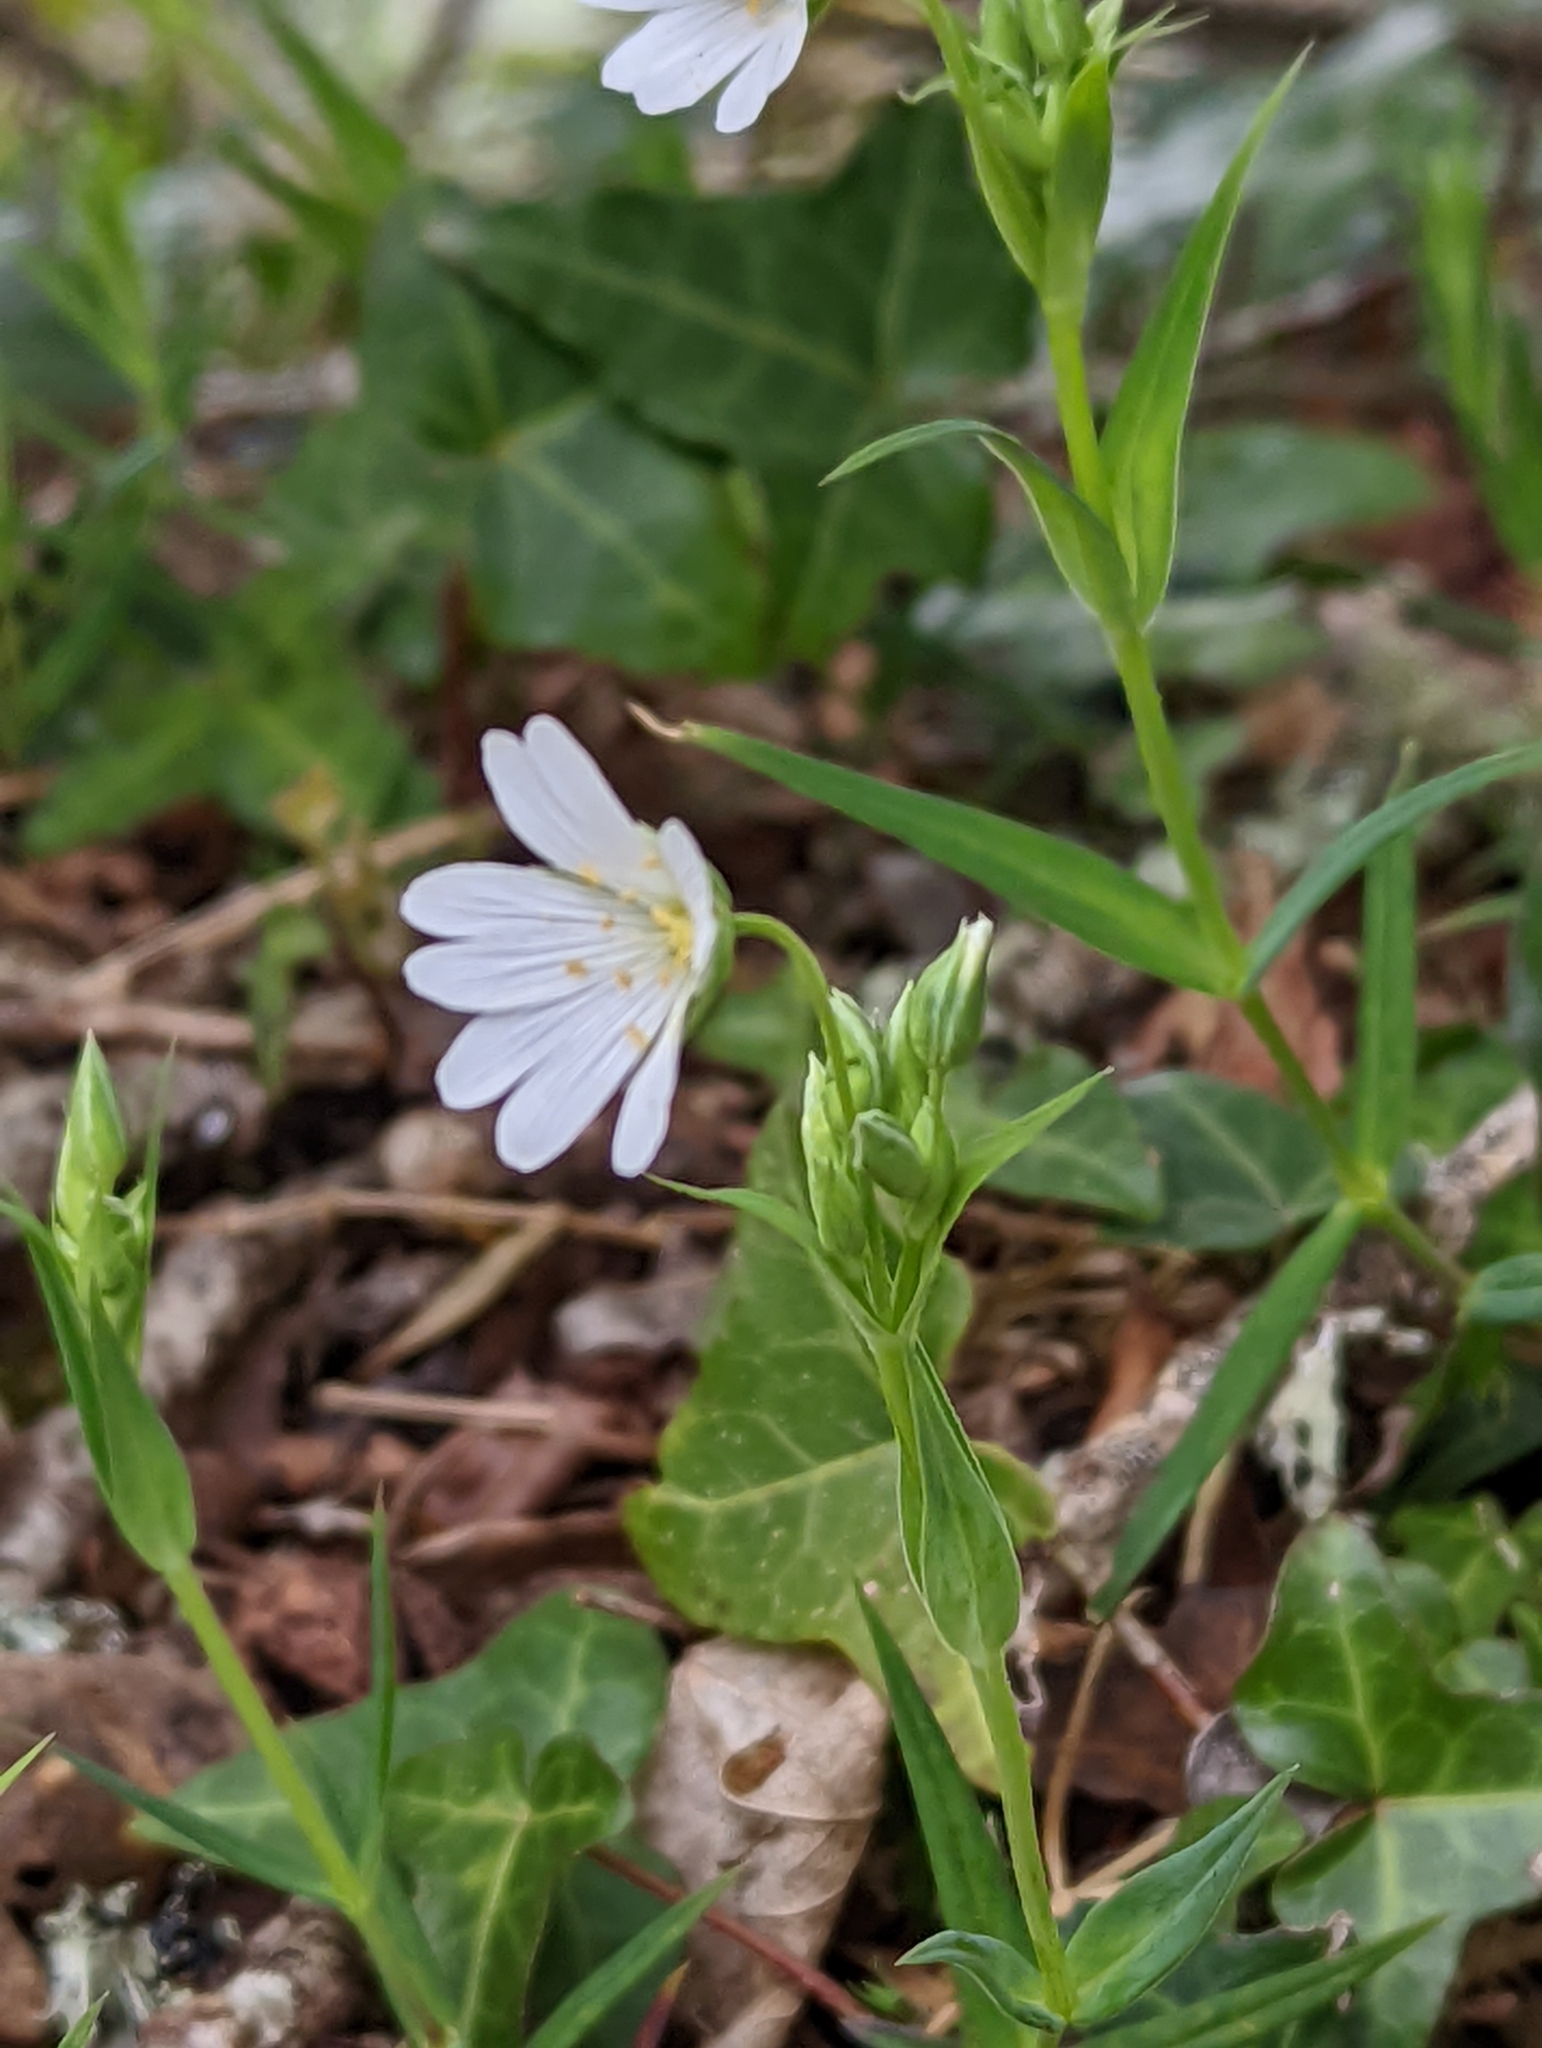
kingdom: Plantae
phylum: Tracheophyta
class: Magnoliopsida
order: Caryophyllales
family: Caryophyllaceae
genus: Rabelera
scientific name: Rabelera holostea
